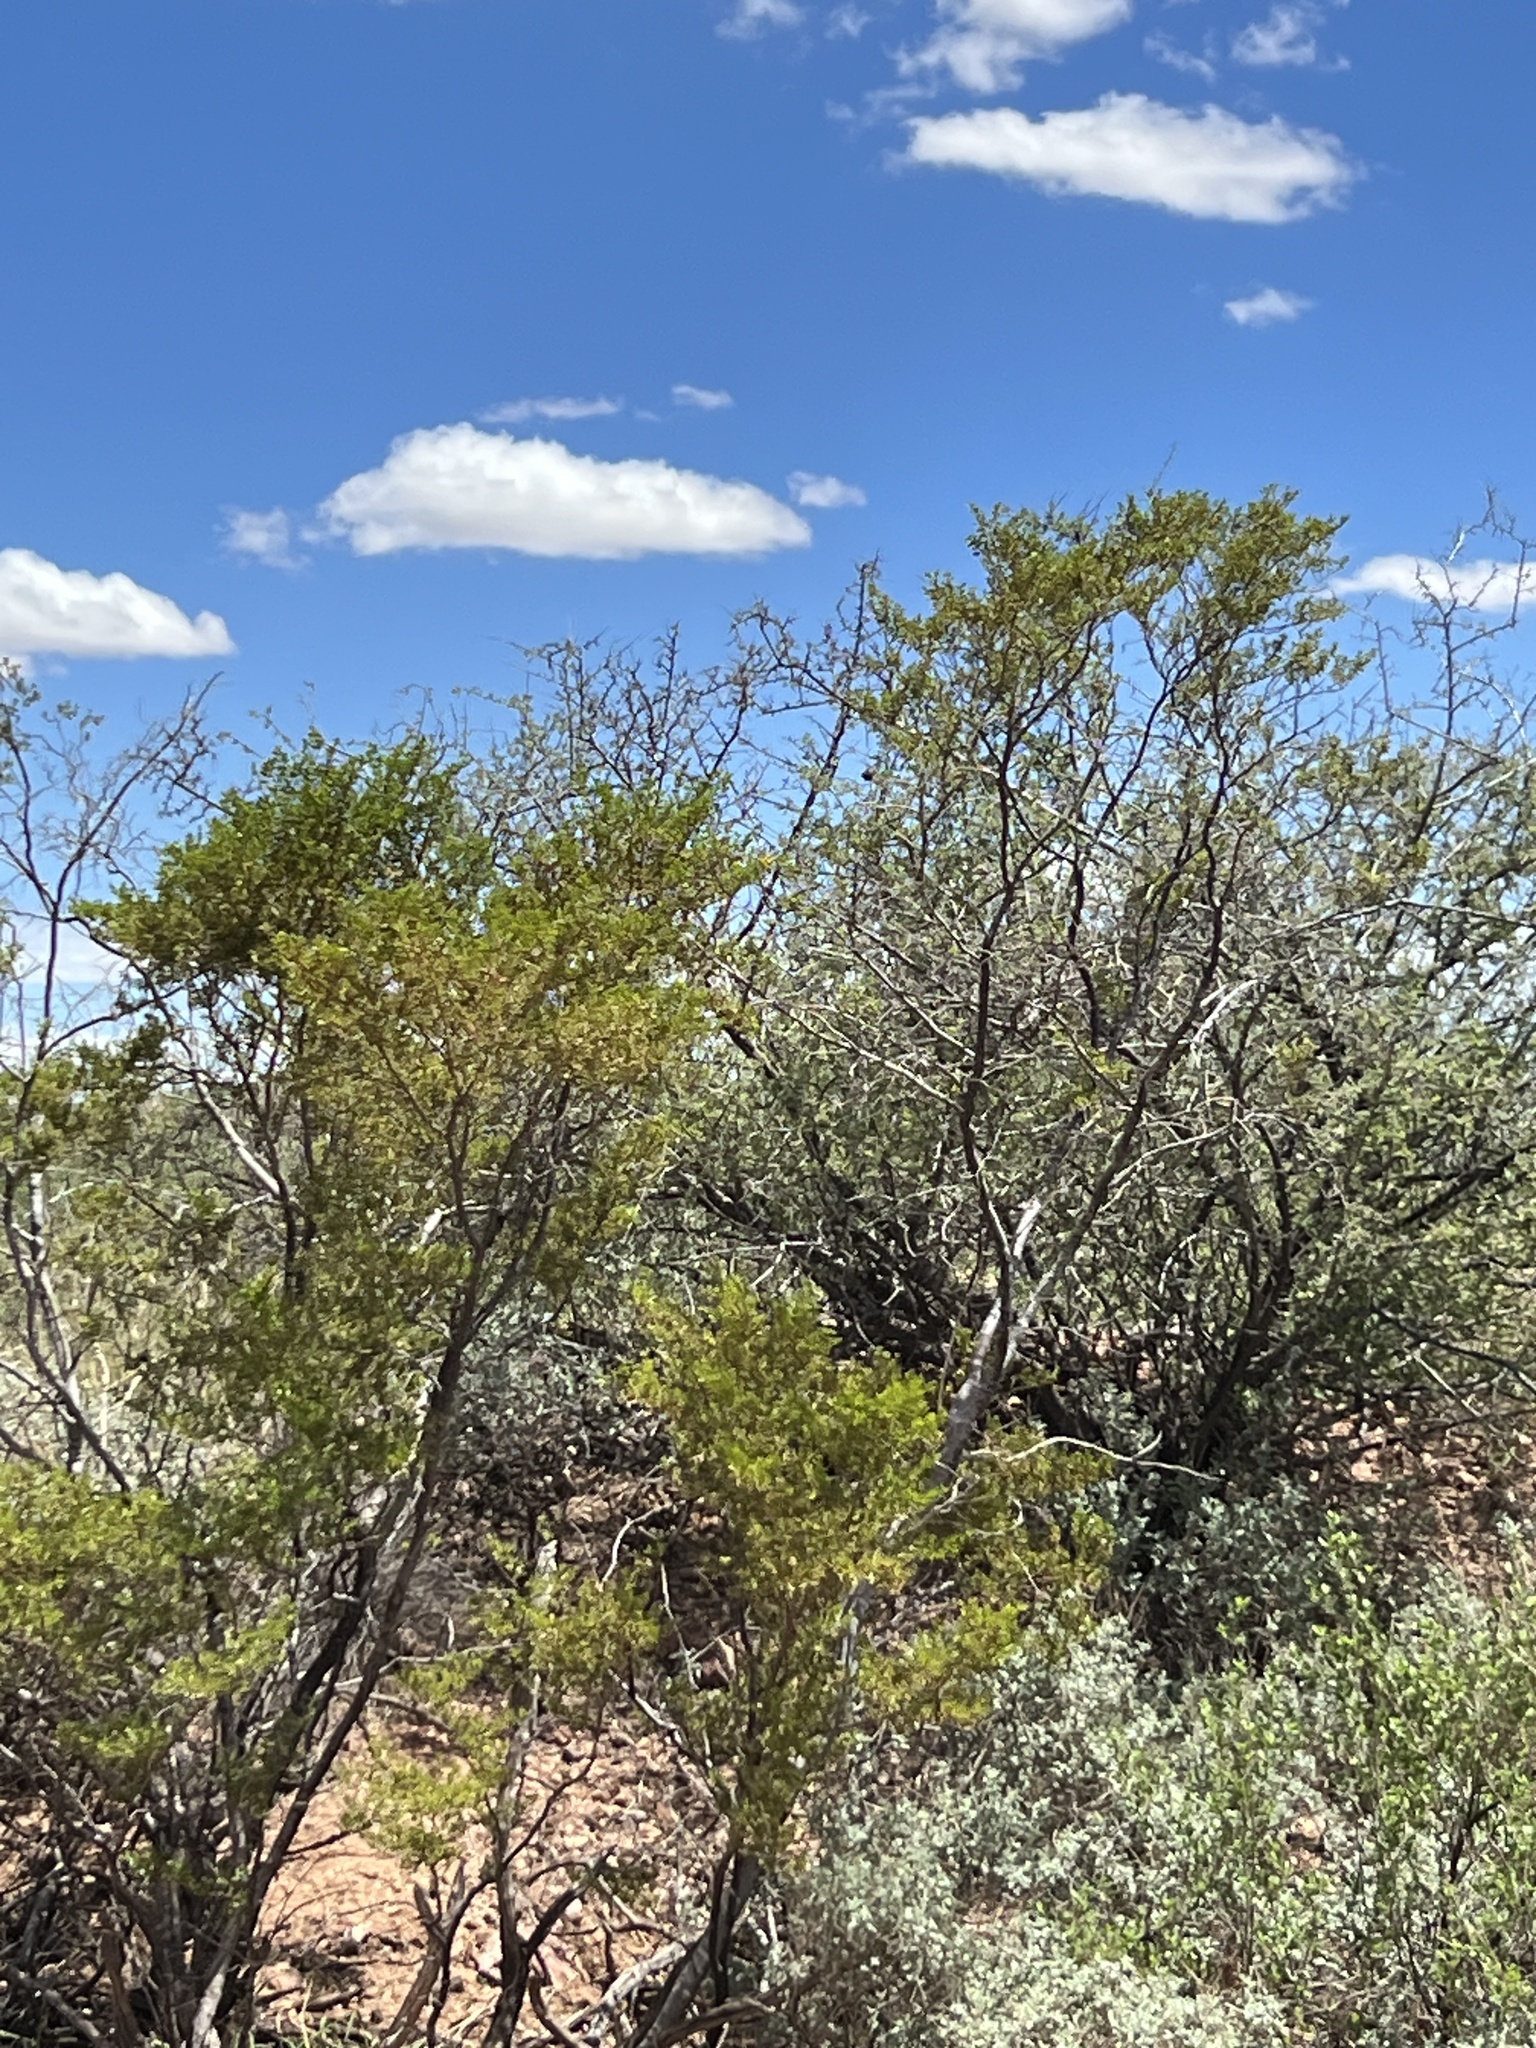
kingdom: Plantae
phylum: Tracheophyta
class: Magnoliopsida
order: Zygophyllales
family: Zygophyllaceae
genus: Larrea
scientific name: Larrea tridentata
